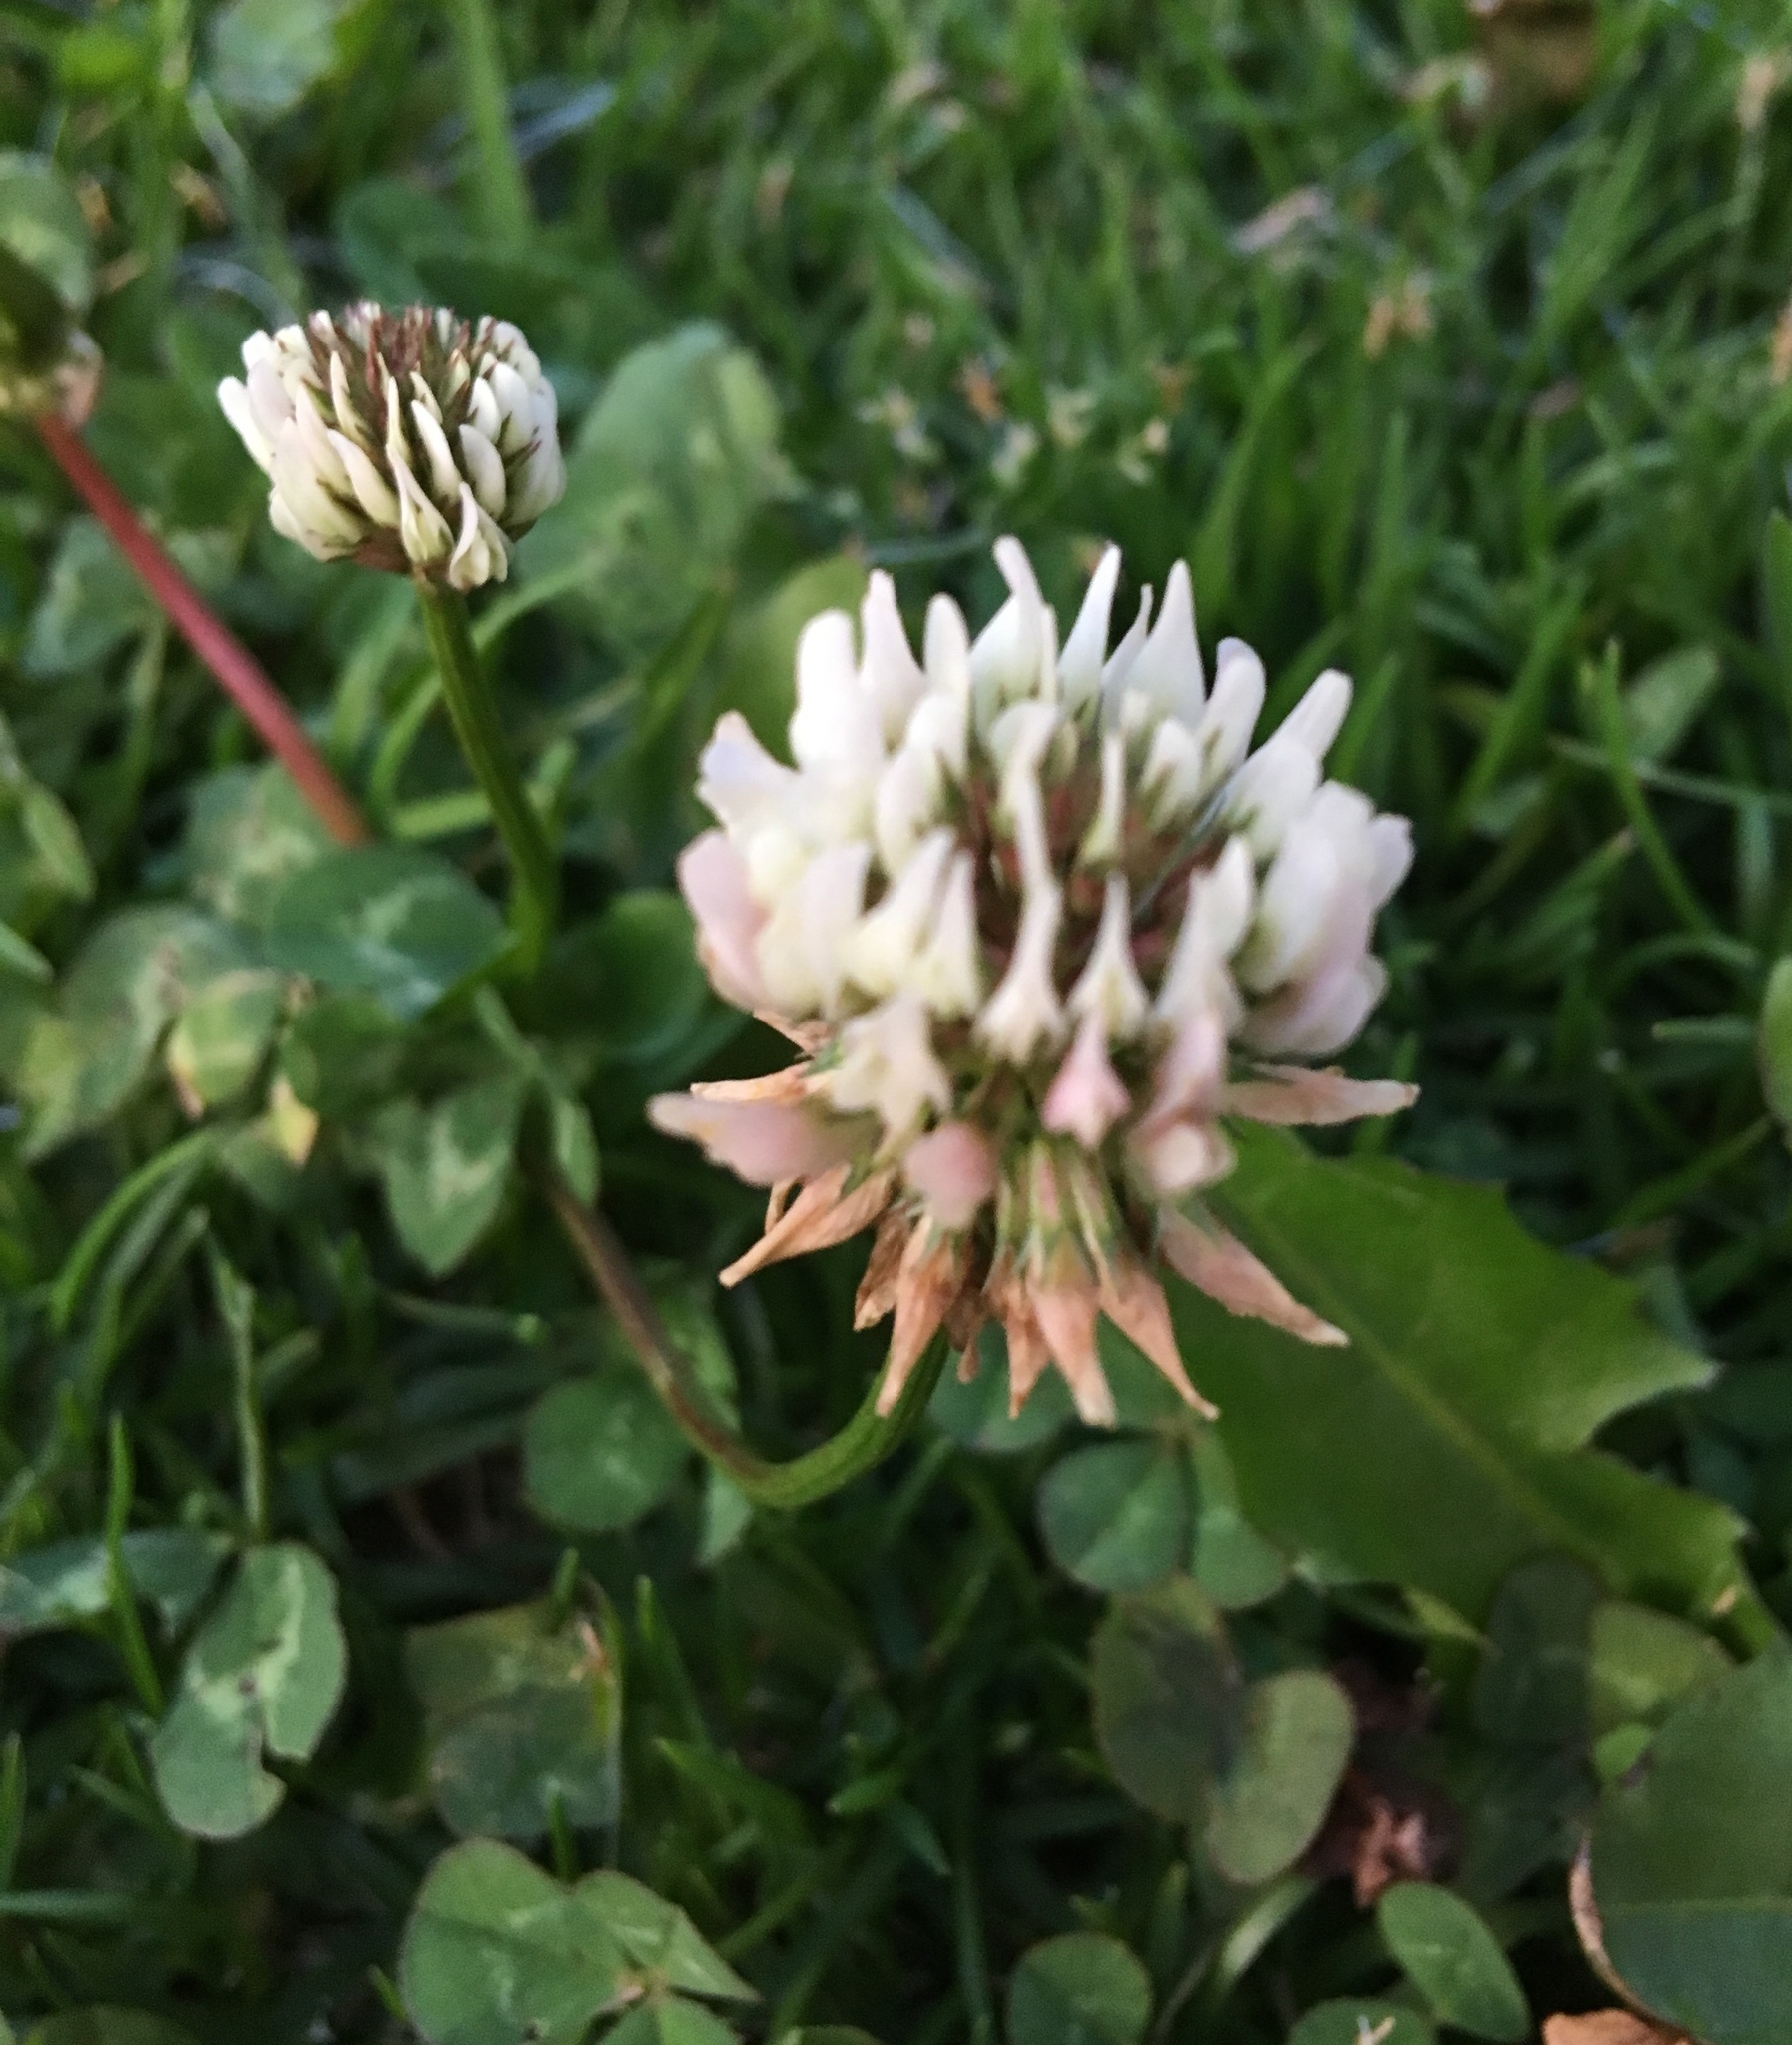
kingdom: Plantae
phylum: Tracheophyta
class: Magnoliopsida
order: Fabales
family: Fabaceae
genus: Trifolium
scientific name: Trifolium repens
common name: White clover
